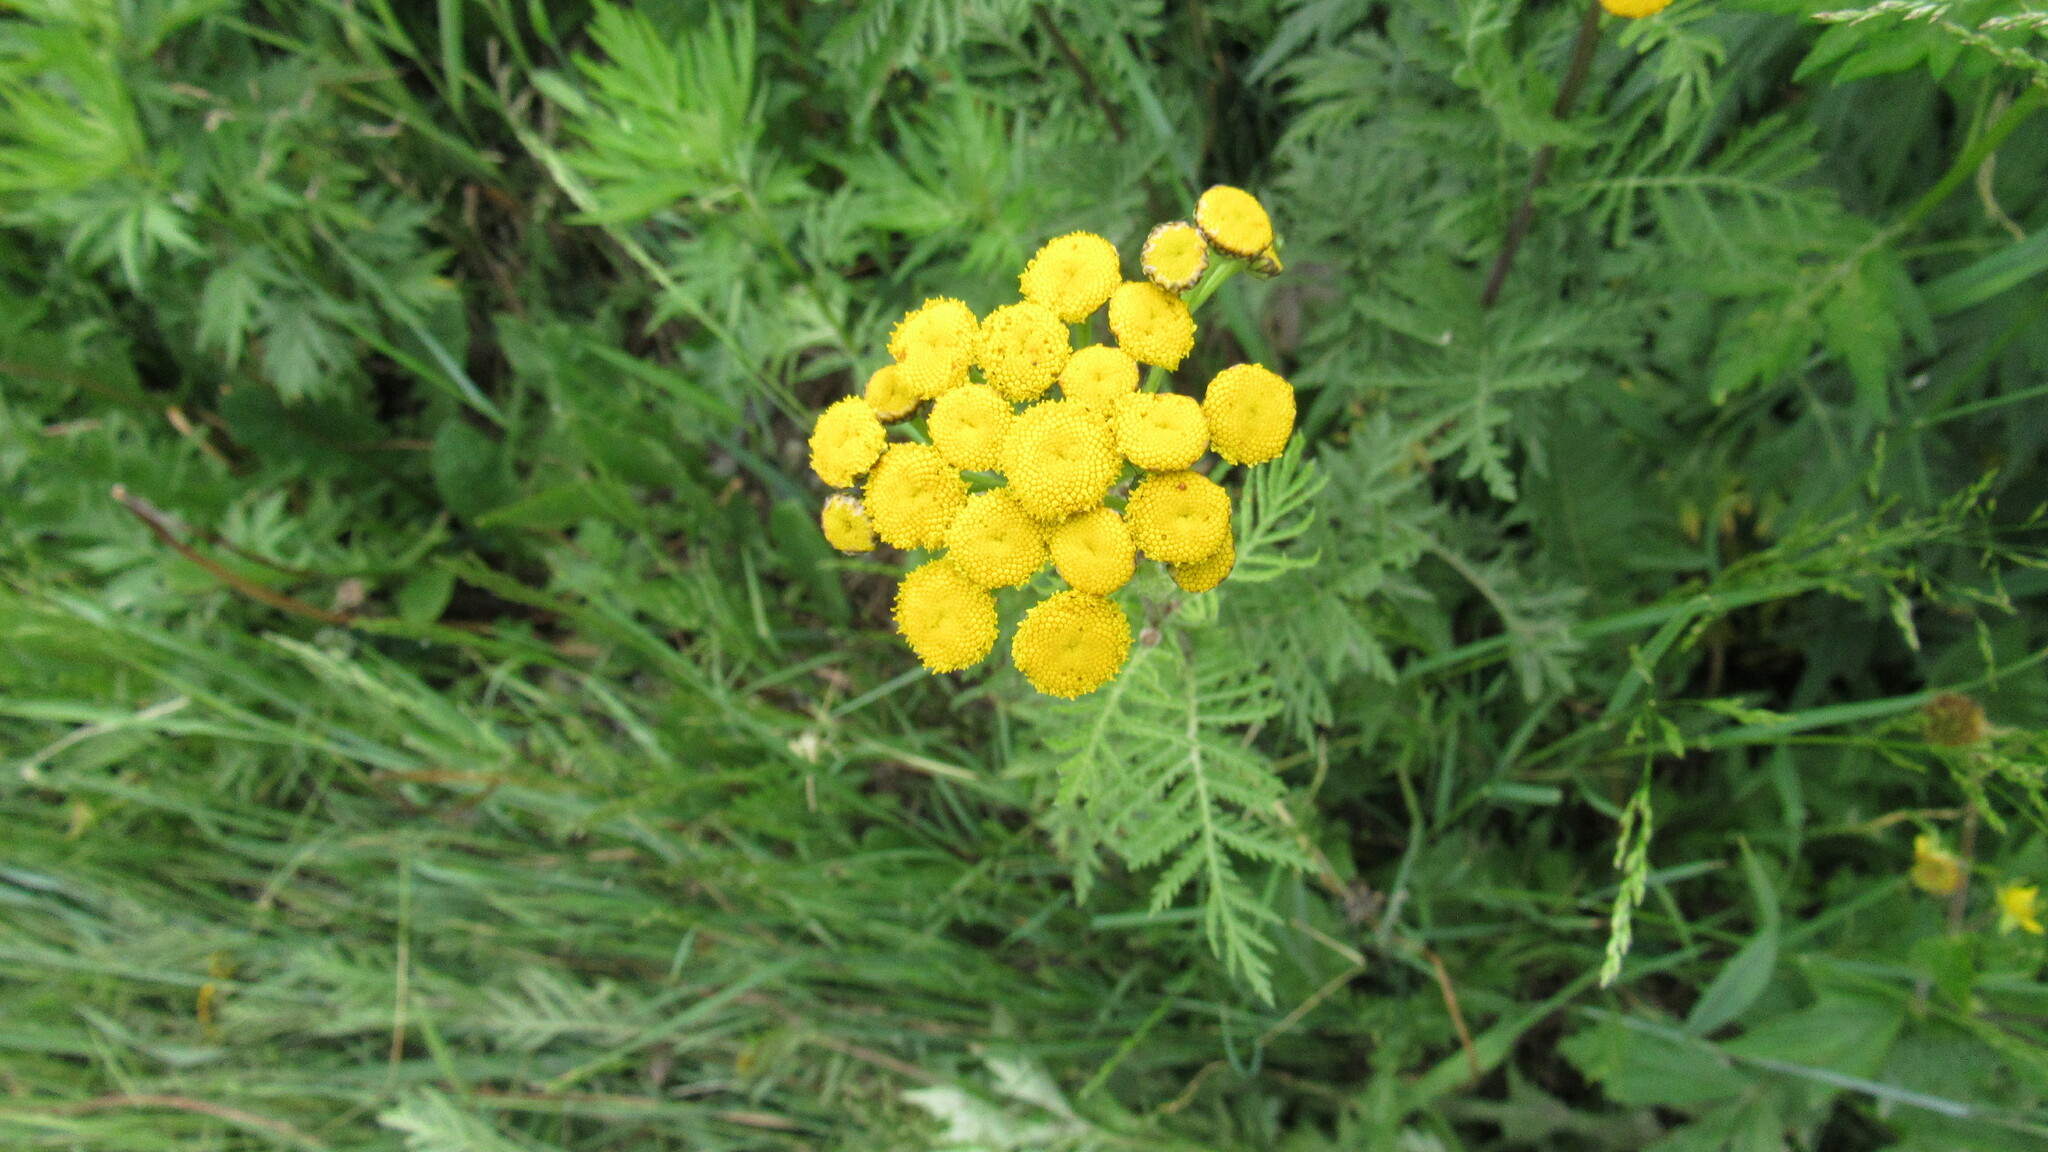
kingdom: Plantae
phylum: Tracheophyta
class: Magnoliopsida
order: Asterales
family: Asteraceae
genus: Tanacetum
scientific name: Tanacetum vulgare
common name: Common tansy
